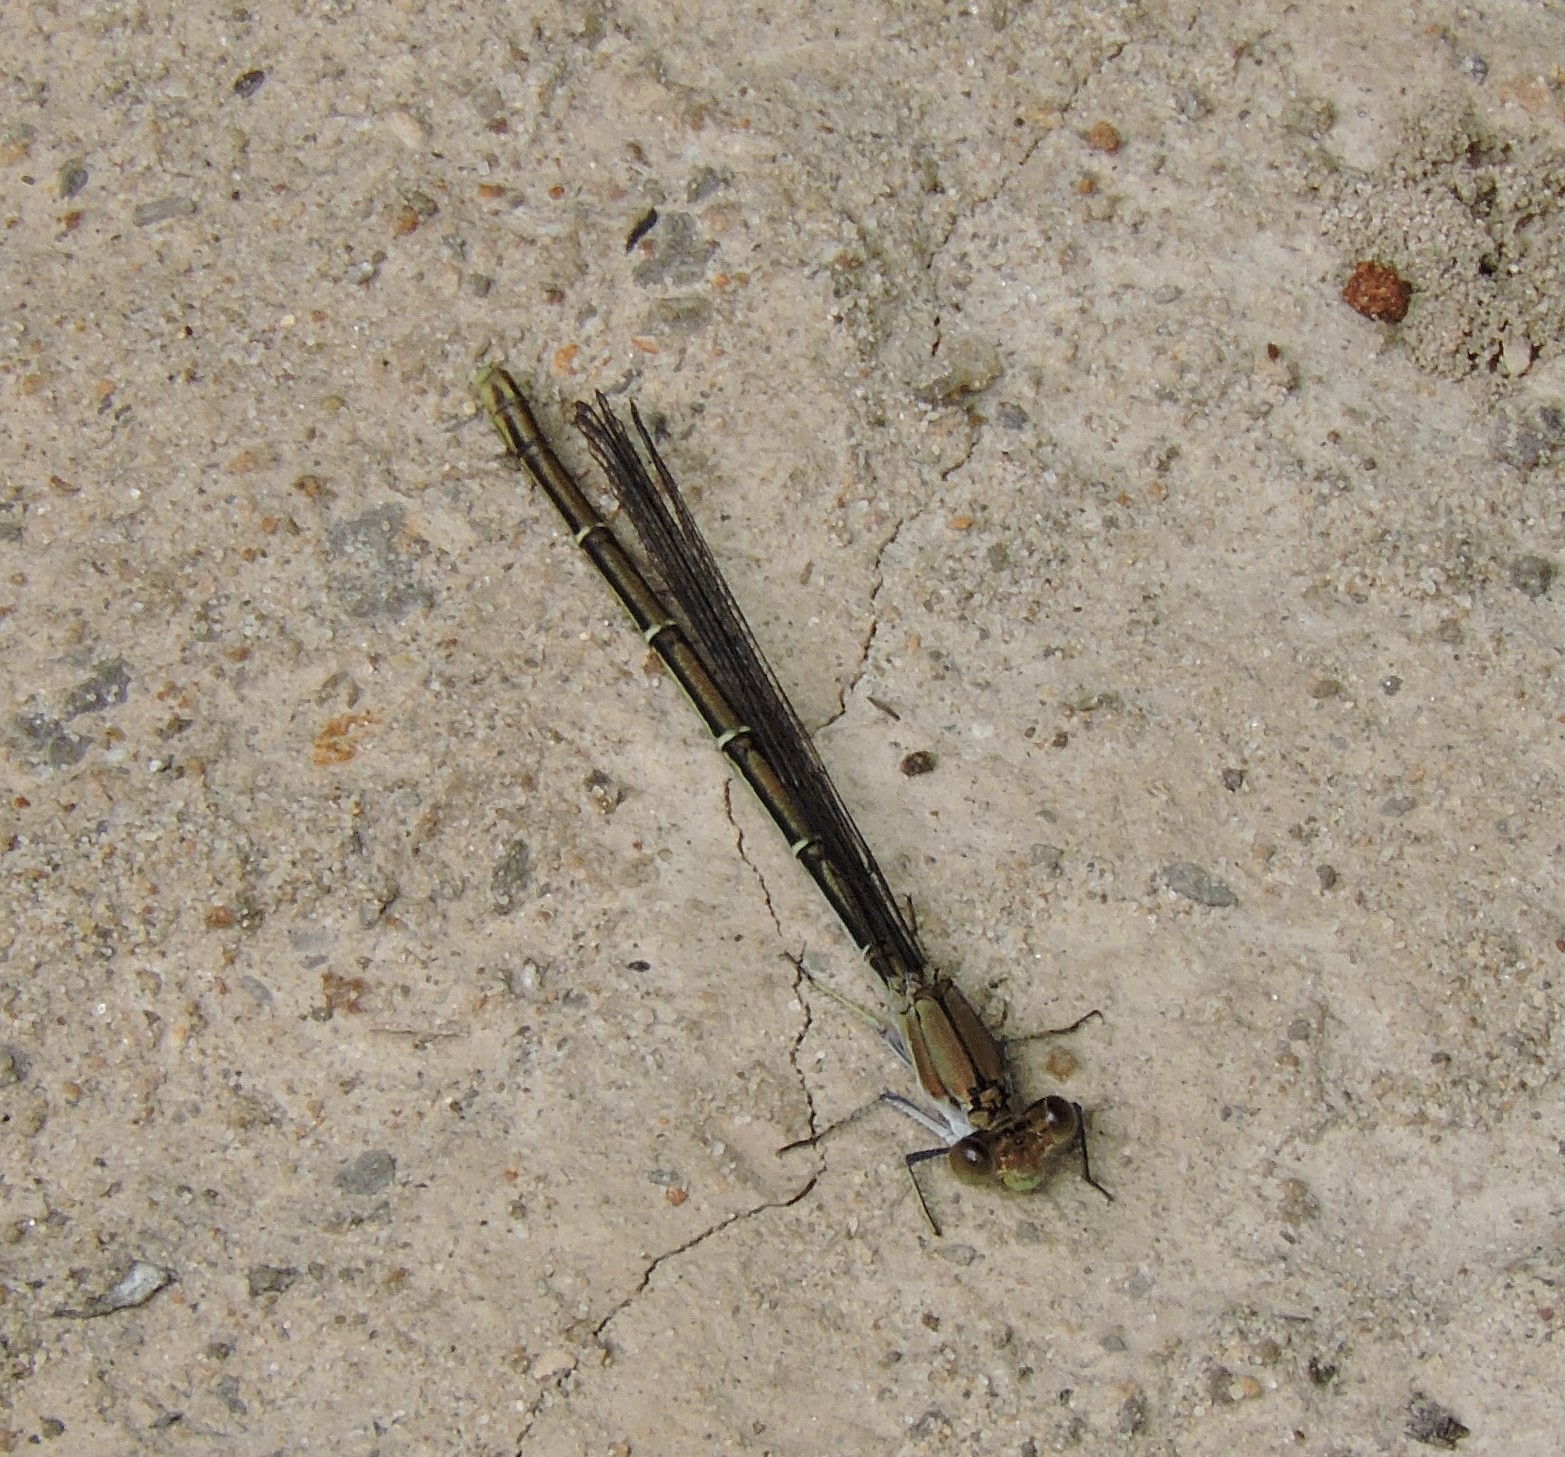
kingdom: Animalia
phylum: Arthropoda
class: Insecta
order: Odonata
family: Coenagrionidae
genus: Argia
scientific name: Argia moesta
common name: Powdered dancer
